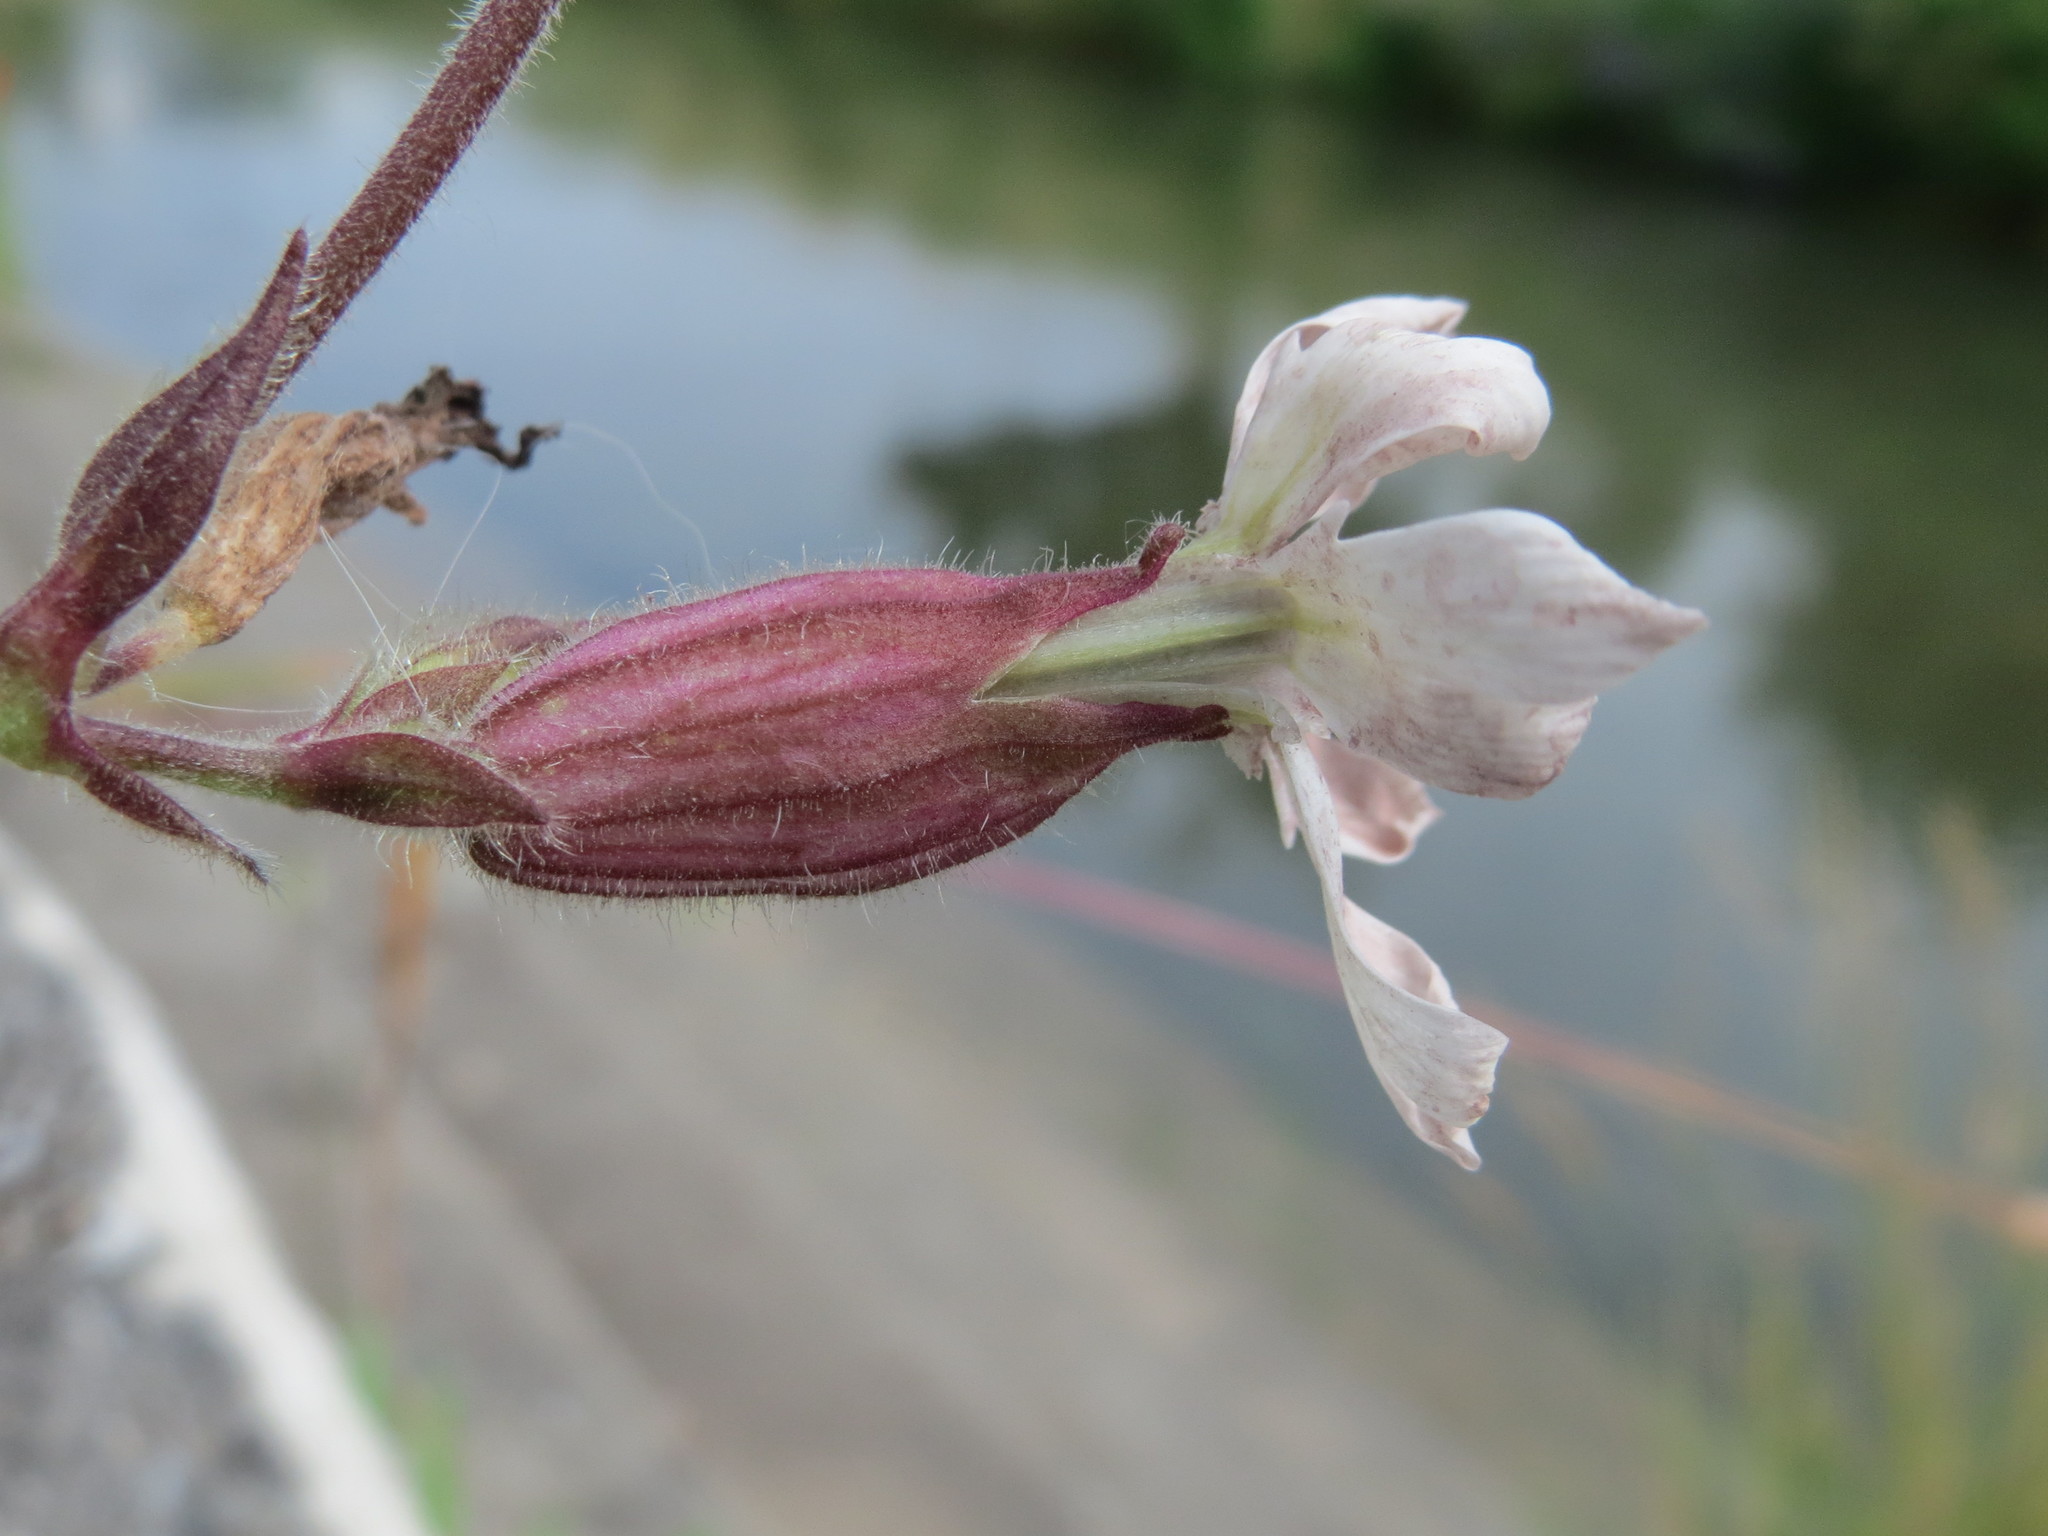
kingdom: Plantae
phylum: Tracheophyta
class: Magnoliopsida
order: Caryophyllales
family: Caryophyllaceae
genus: Silene
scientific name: Silene latifolia
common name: White campion
